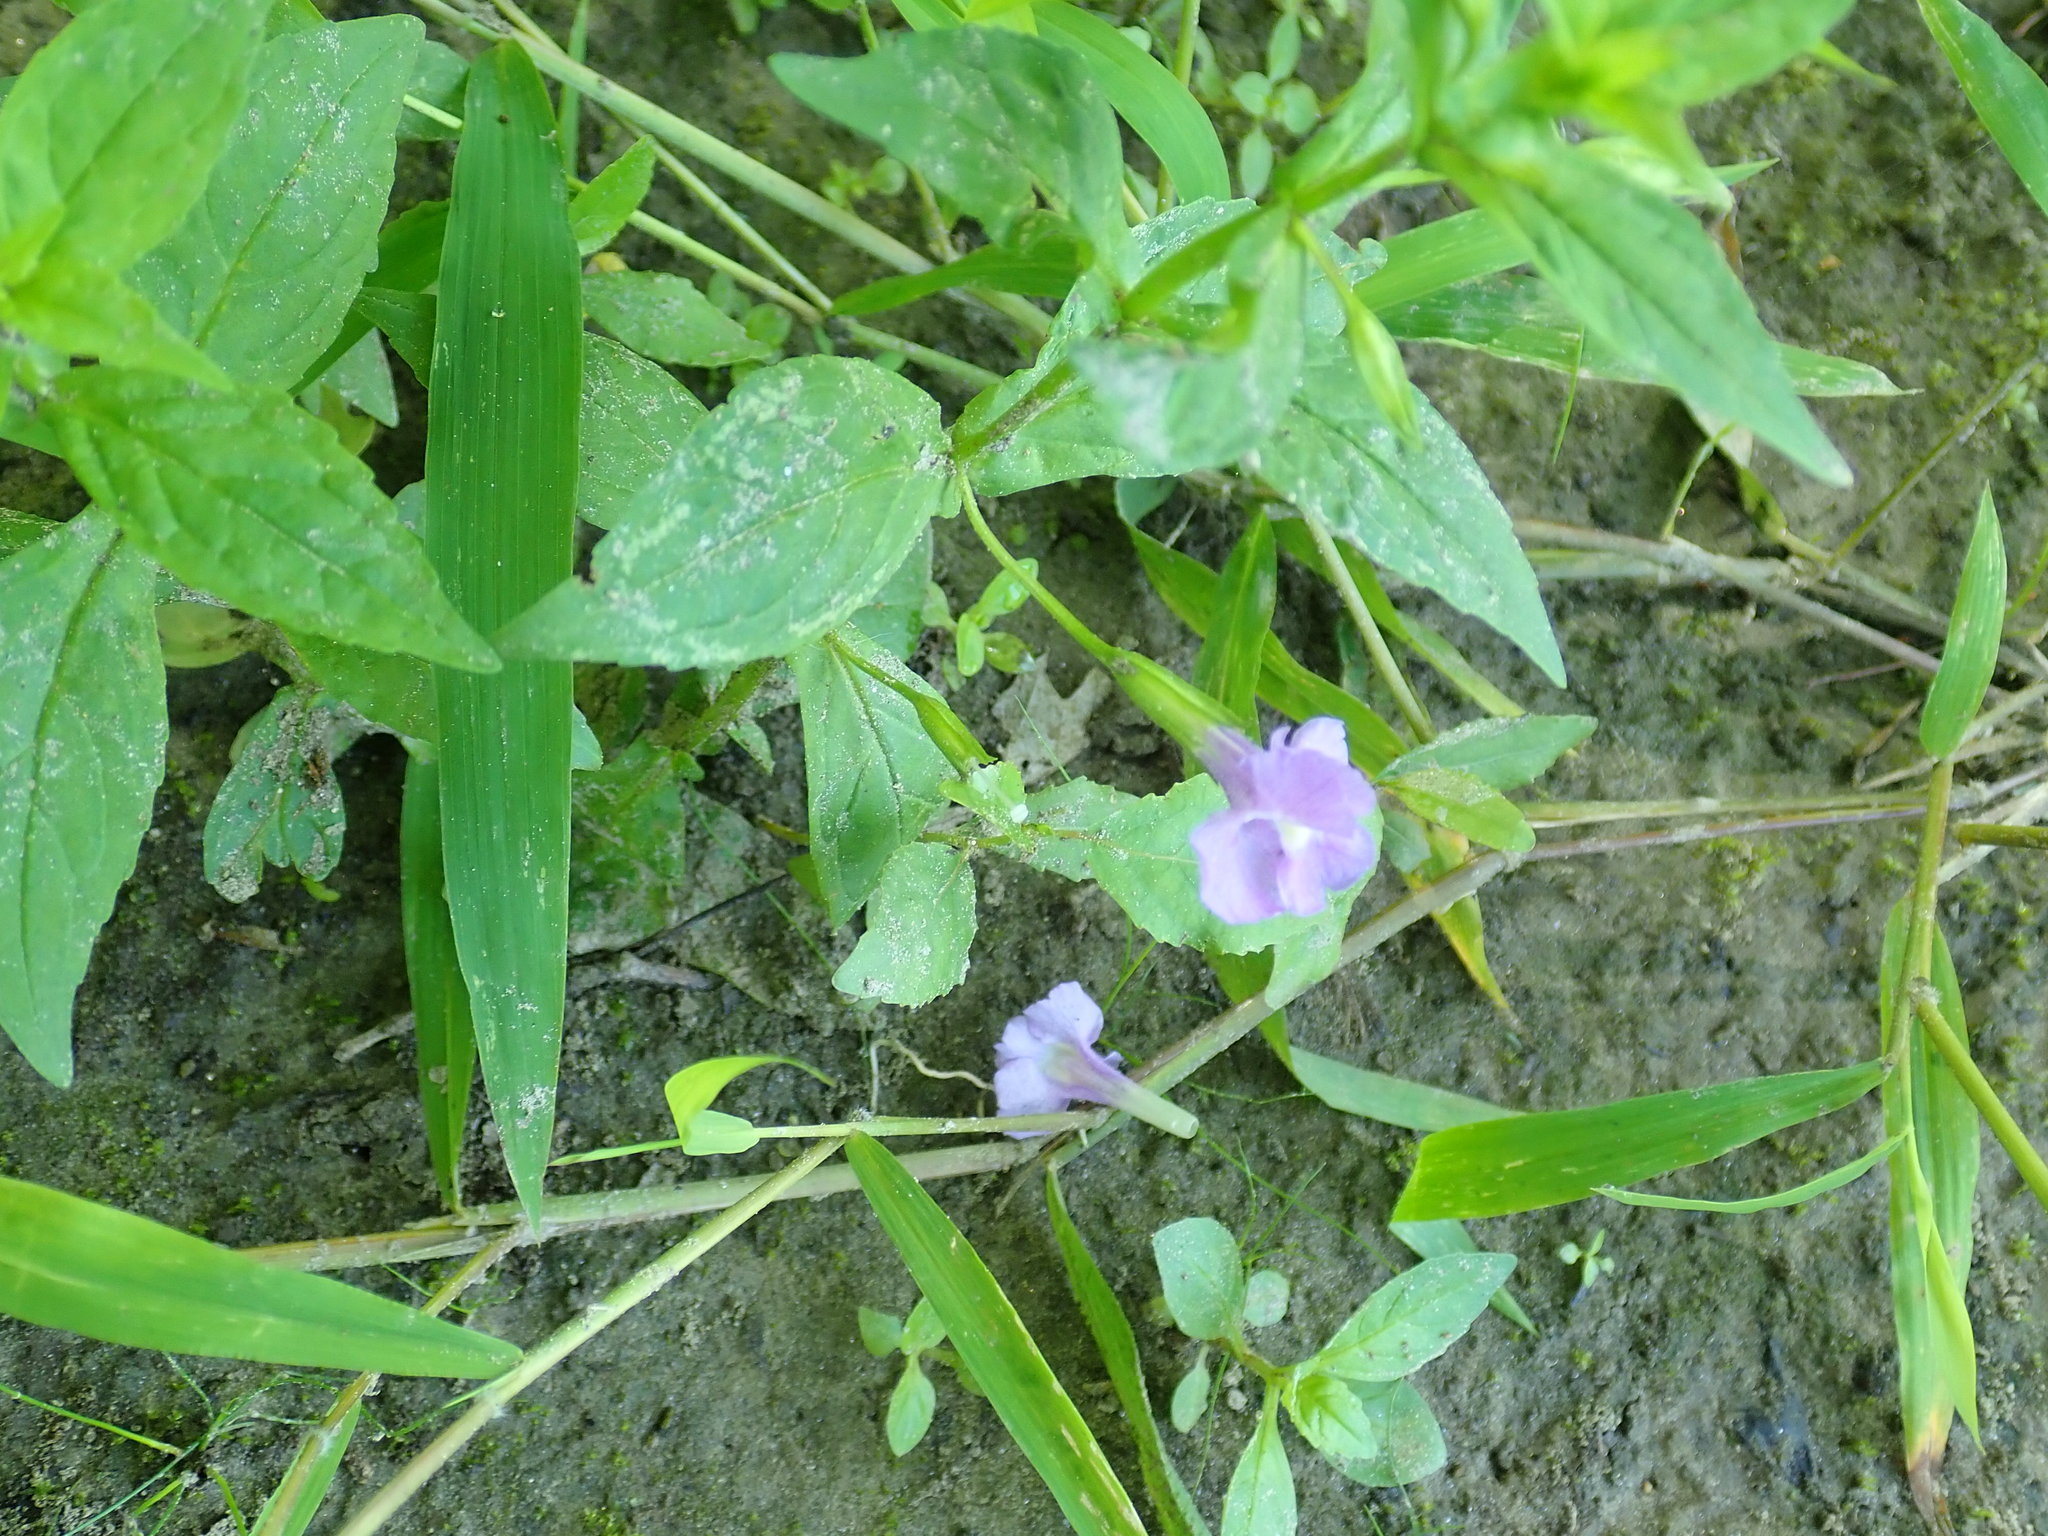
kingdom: Plantae
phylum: Tracheophyta
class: Magnoliopsida
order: Lamiales
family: Phrymaceae
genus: Mimulus
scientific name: Mimulus ringens
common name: Allegheny monkeyflower
